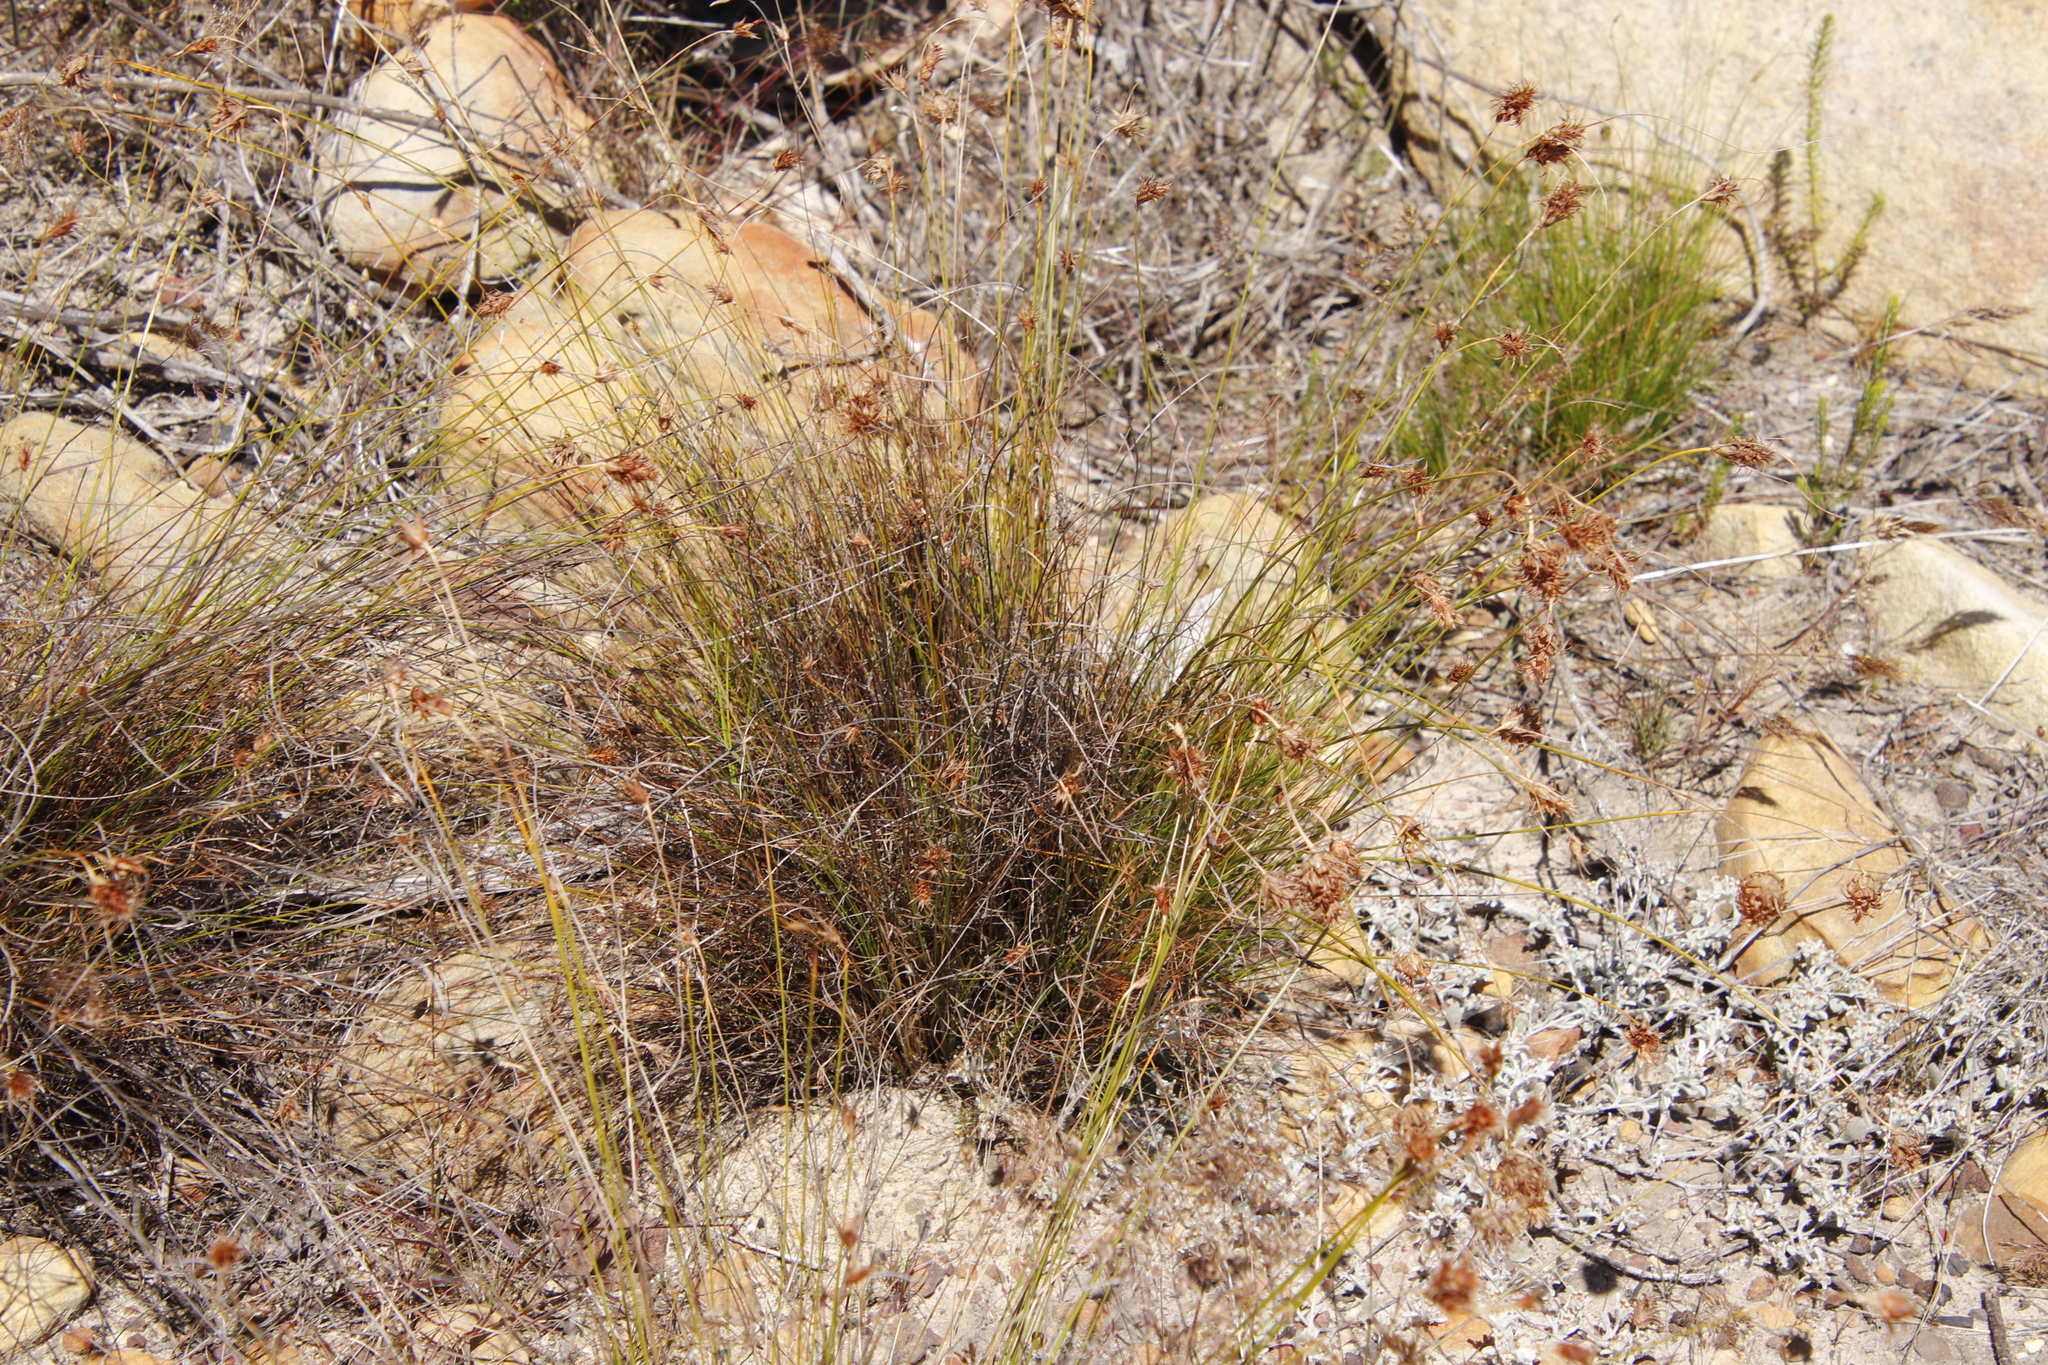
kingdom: Plantae
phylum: Tracheophyta
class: Liliopsida
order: Poales
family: Cyperaceae
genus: Ficinia
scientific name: Ficinia nigrescens
